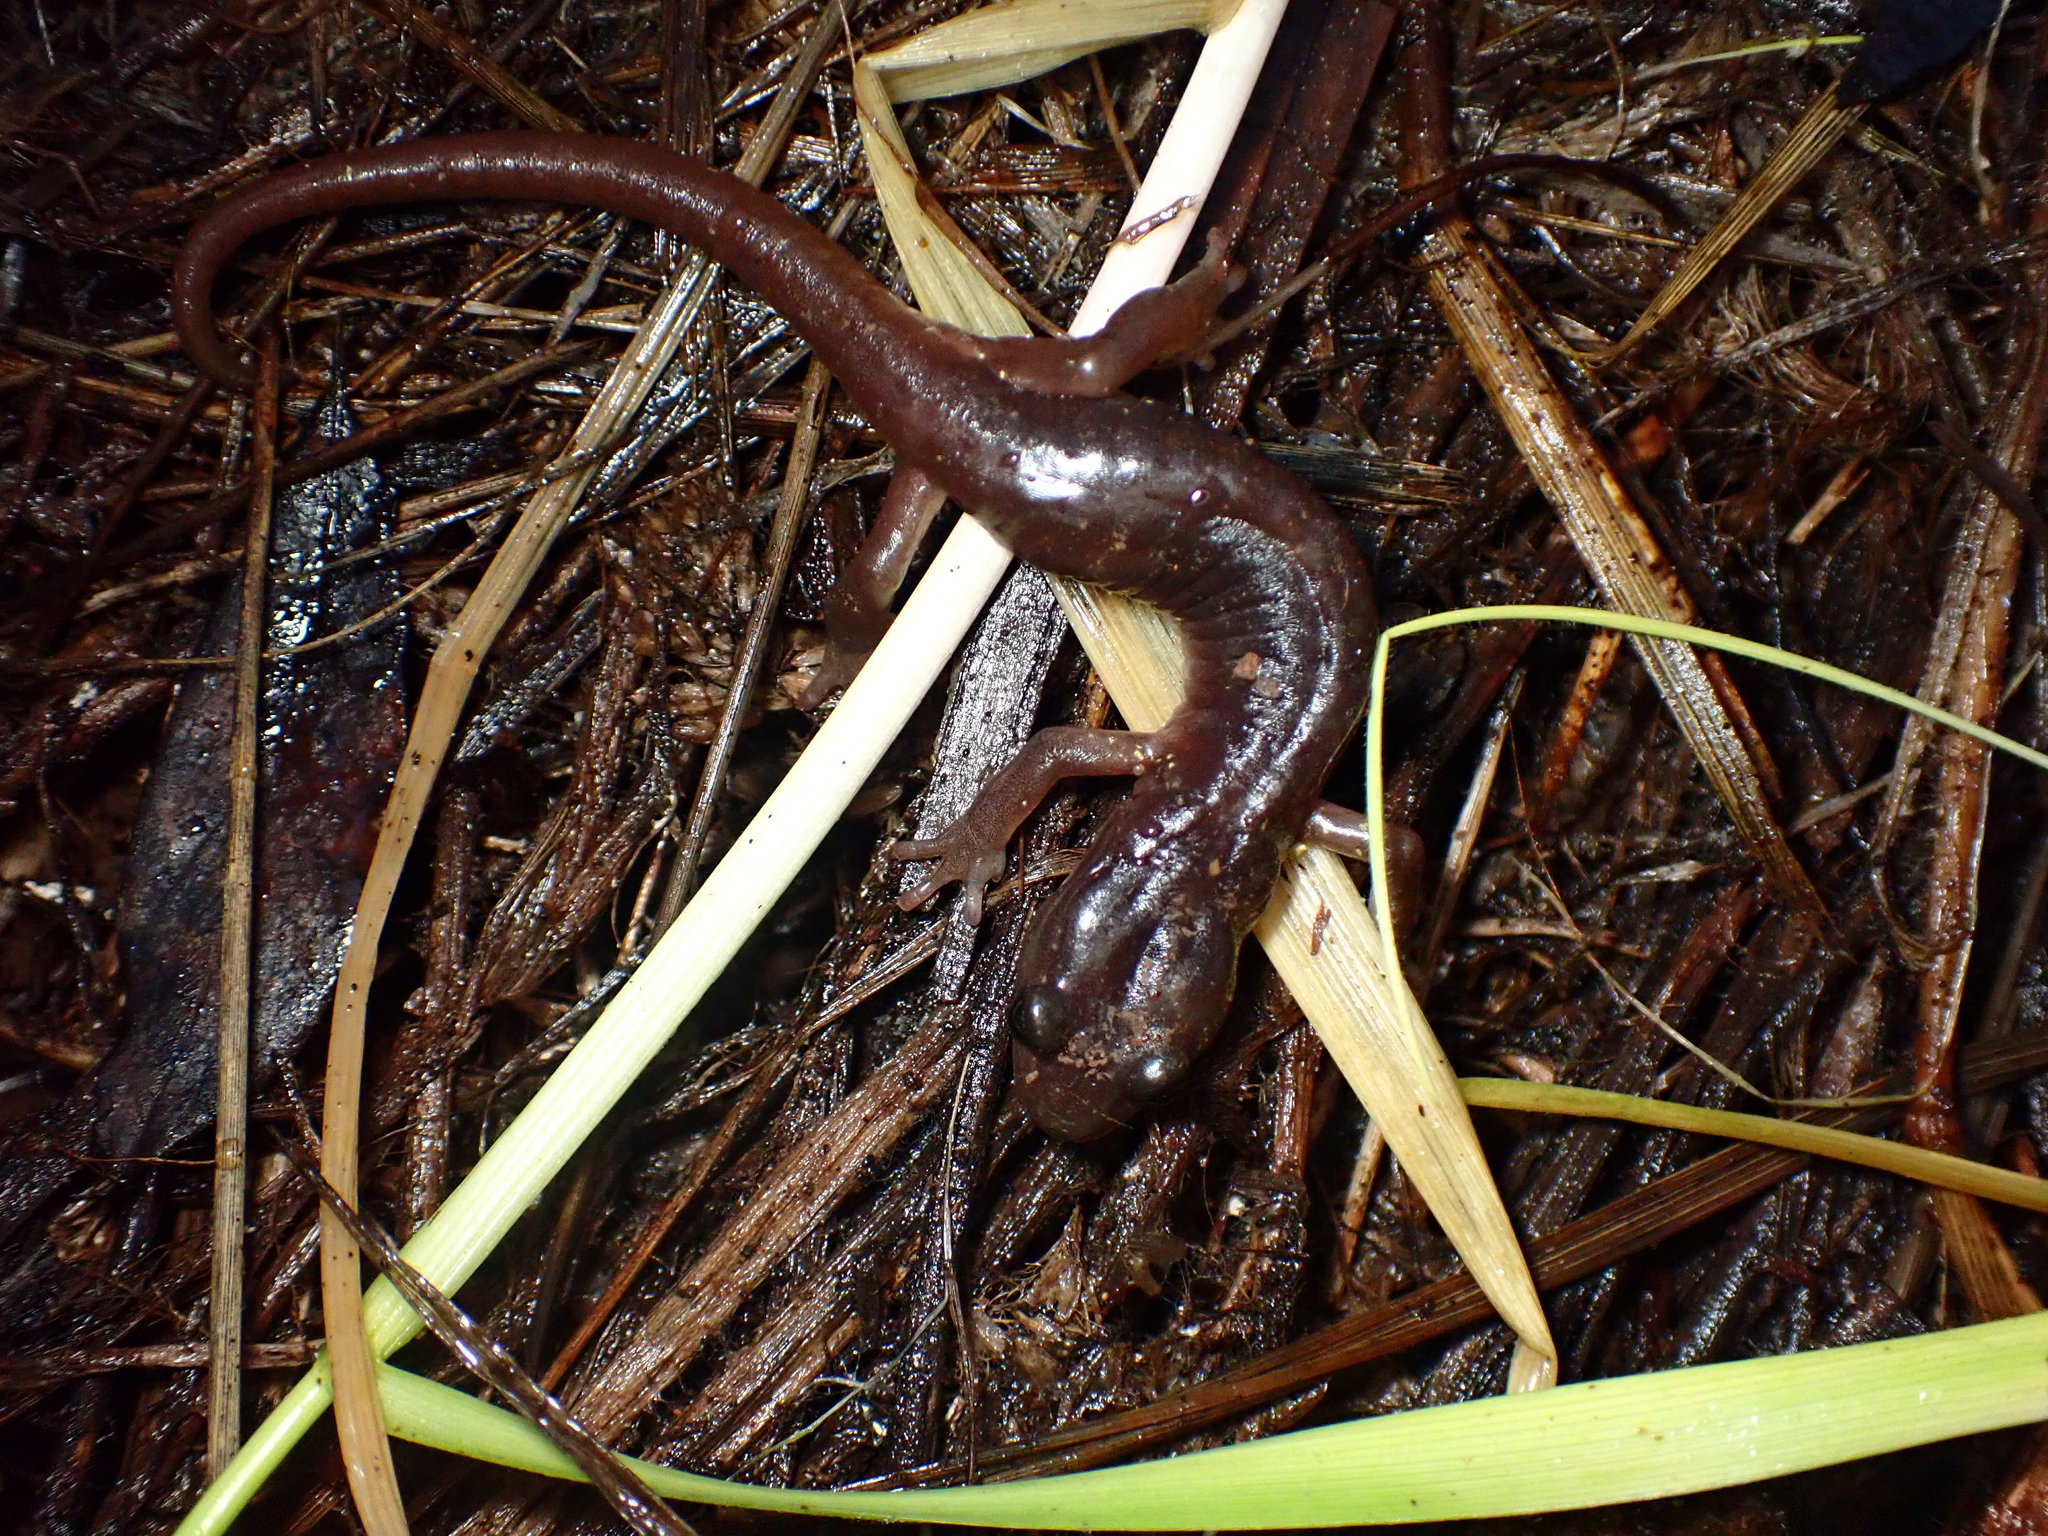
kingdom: Animalia
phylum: Chordata
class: Amphibia
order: Caudata
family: Plethodontidae
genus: Aneides
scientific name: Aneides lugubris
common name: Arboreal salamander
